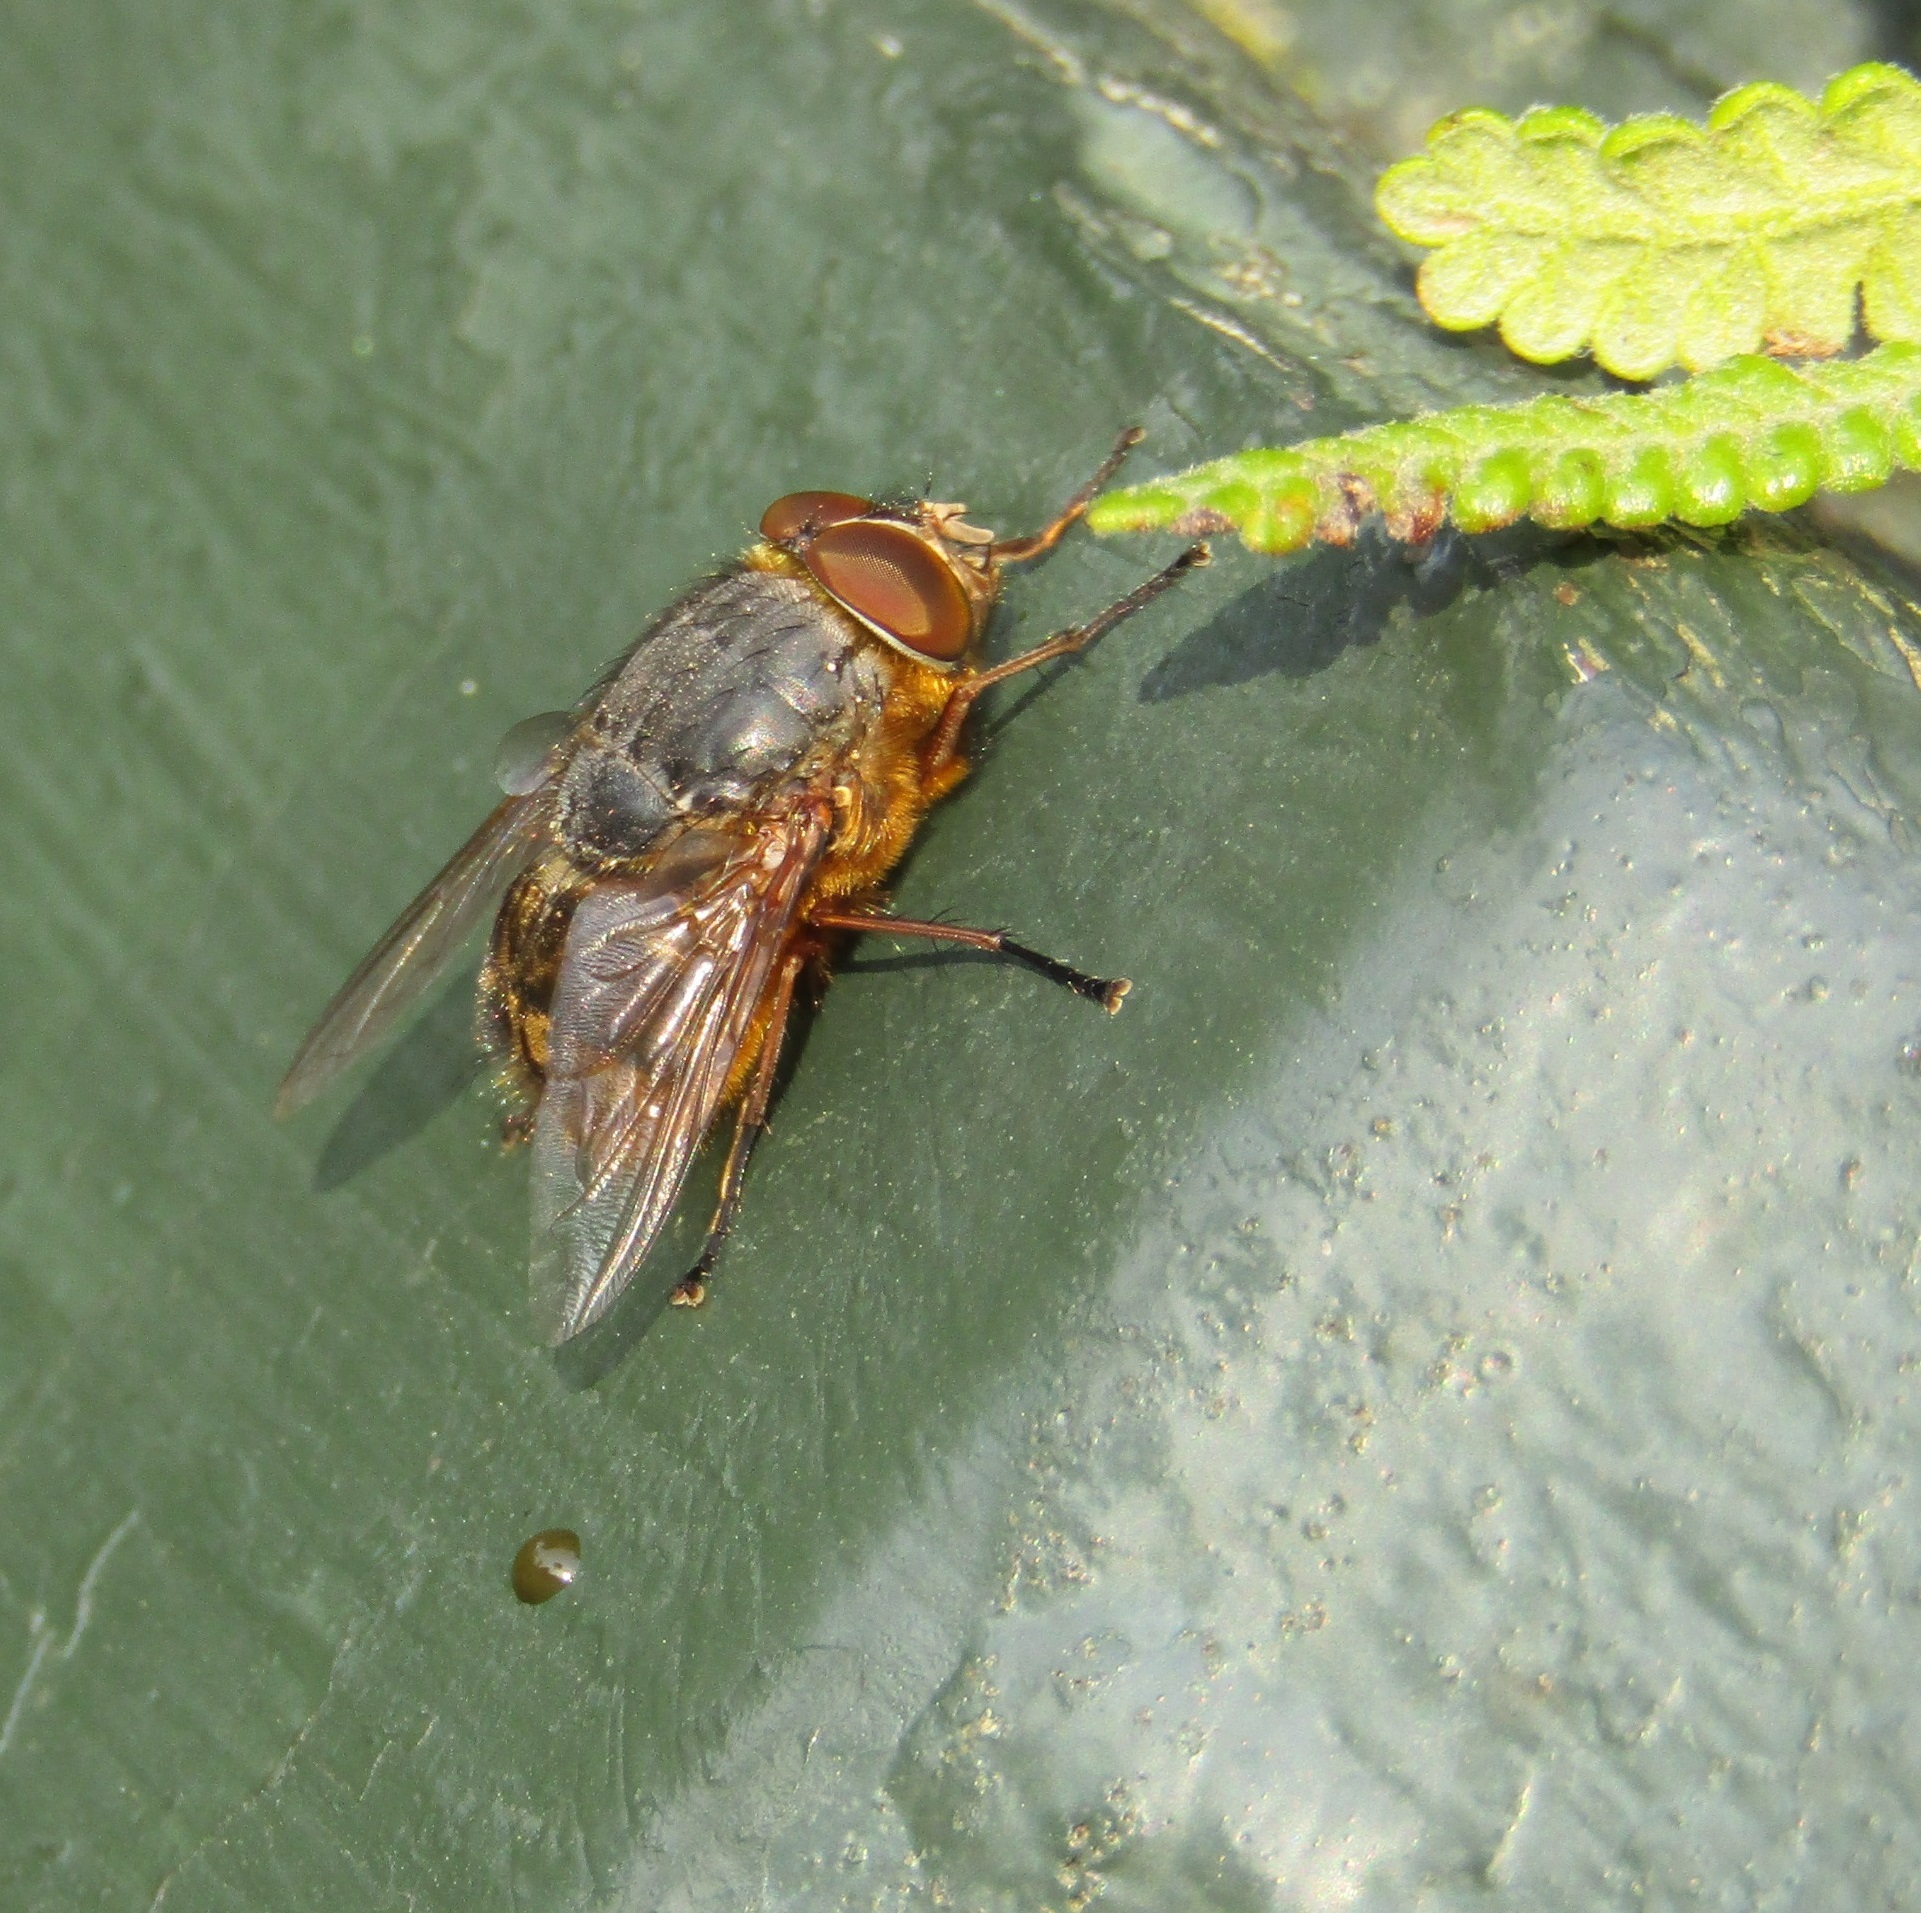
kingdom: Animalia
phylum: Arthropoda
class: Insecta
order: Diptera
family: Calliphoridae
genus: Calliphora
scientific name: Calliphora stygia
